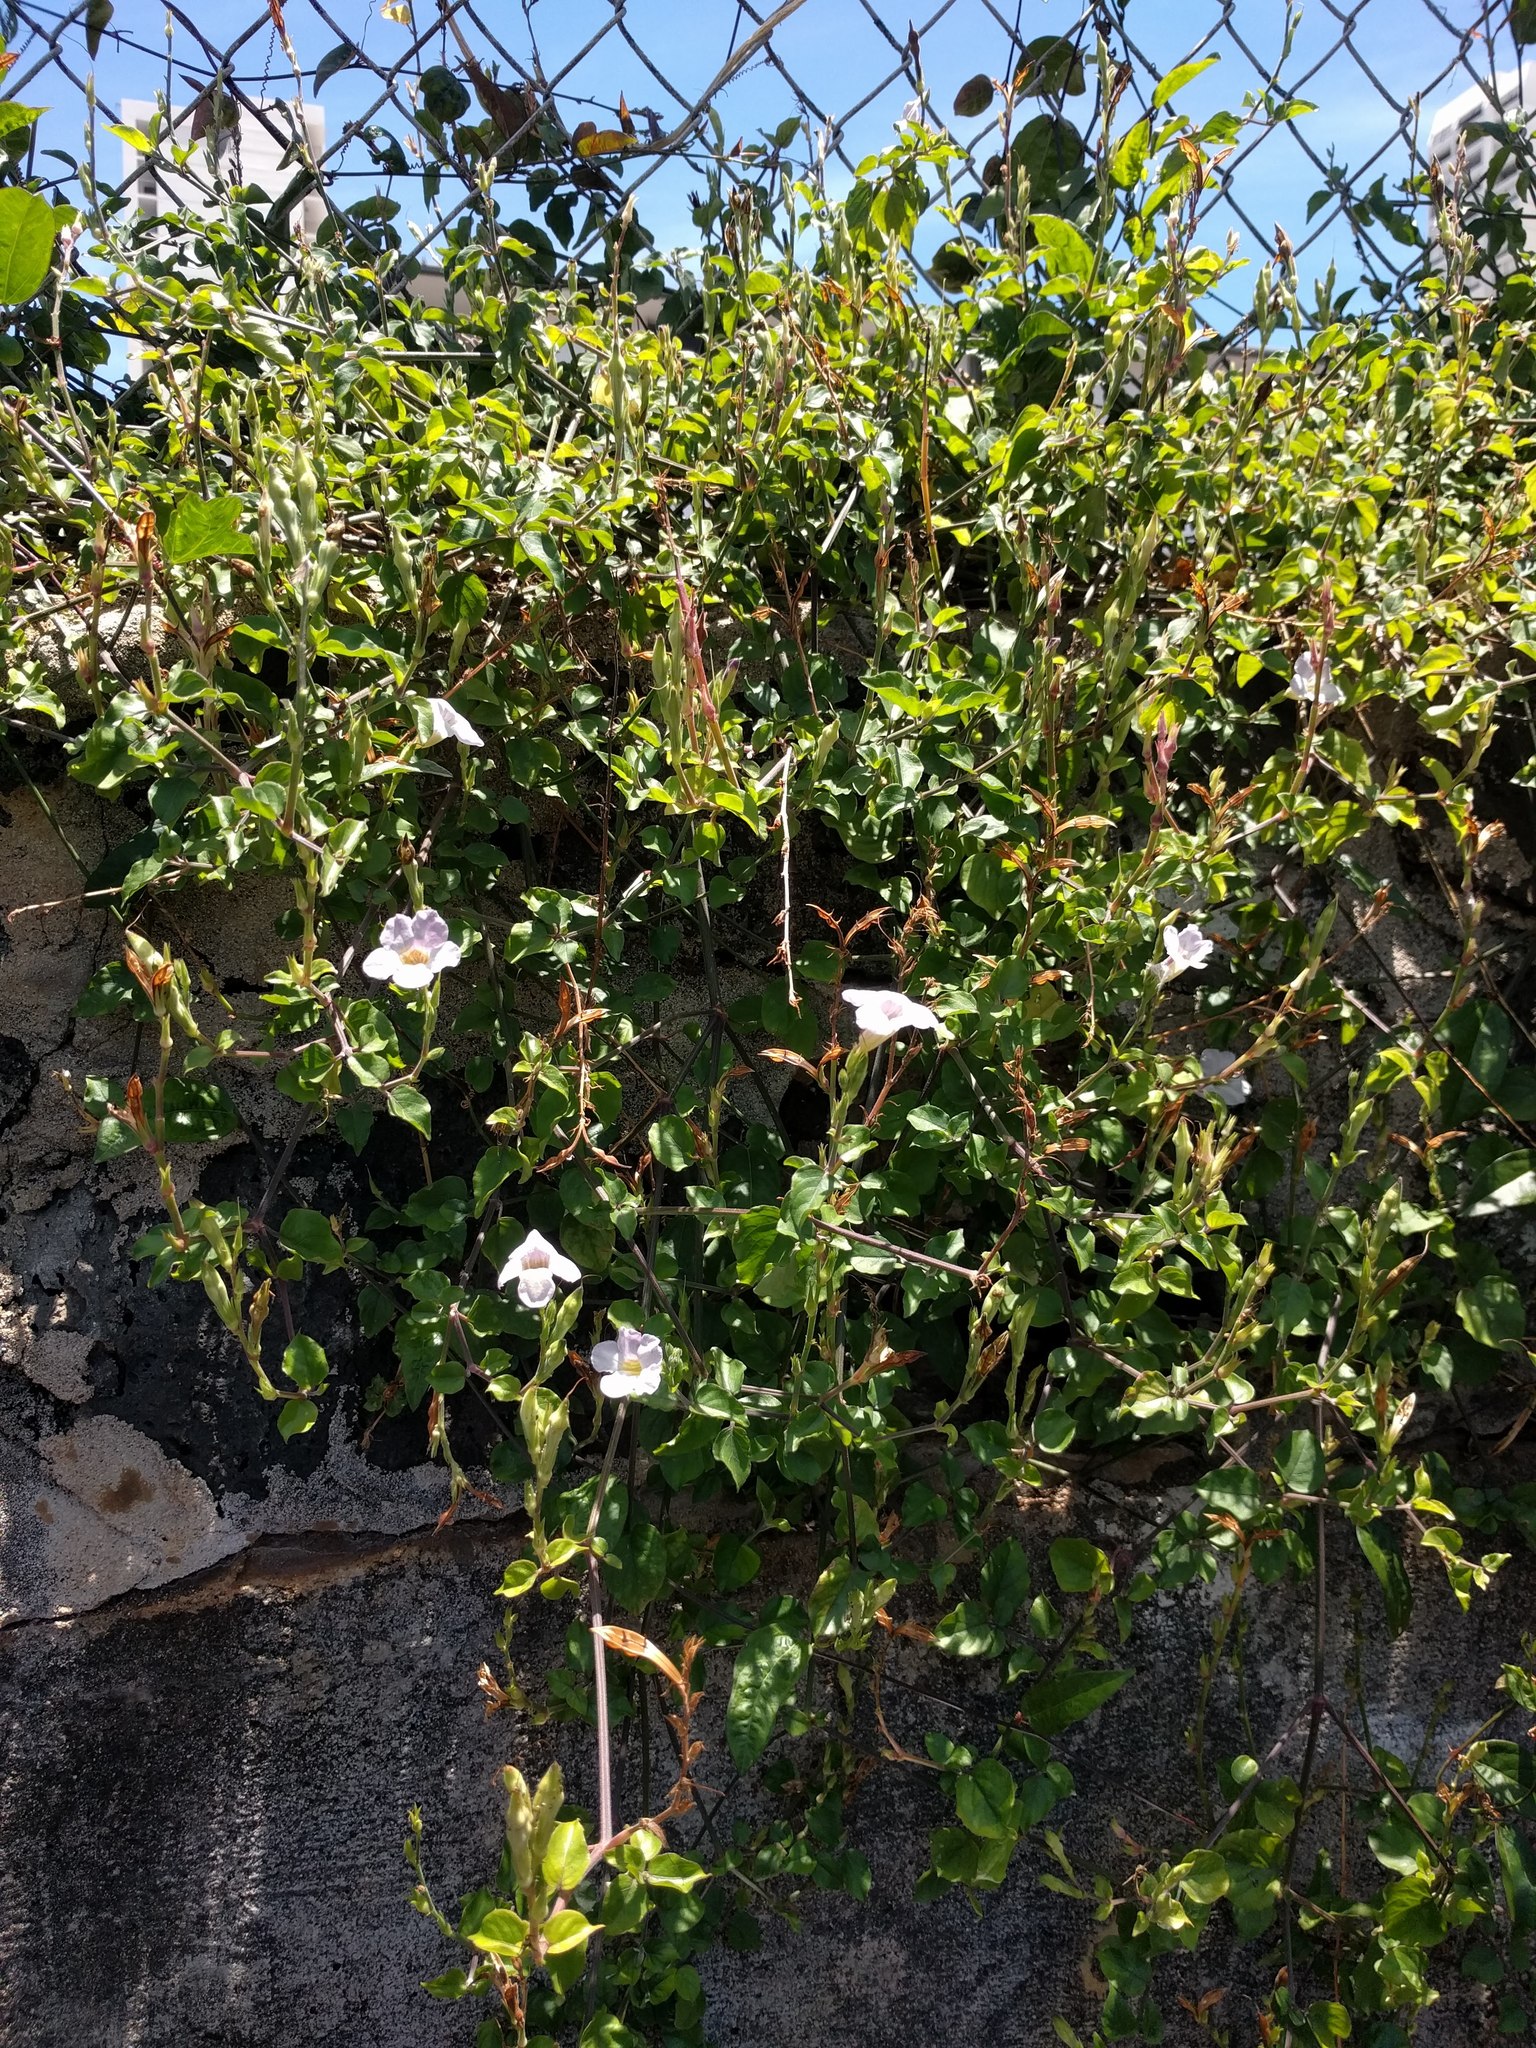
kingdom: Plantae
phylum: Tracheophyta
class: Magnoliopsida
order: Lamiales
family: Acanthaceae
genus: Asystasia
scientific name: Asystasia gangetica
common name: Chinese violet
